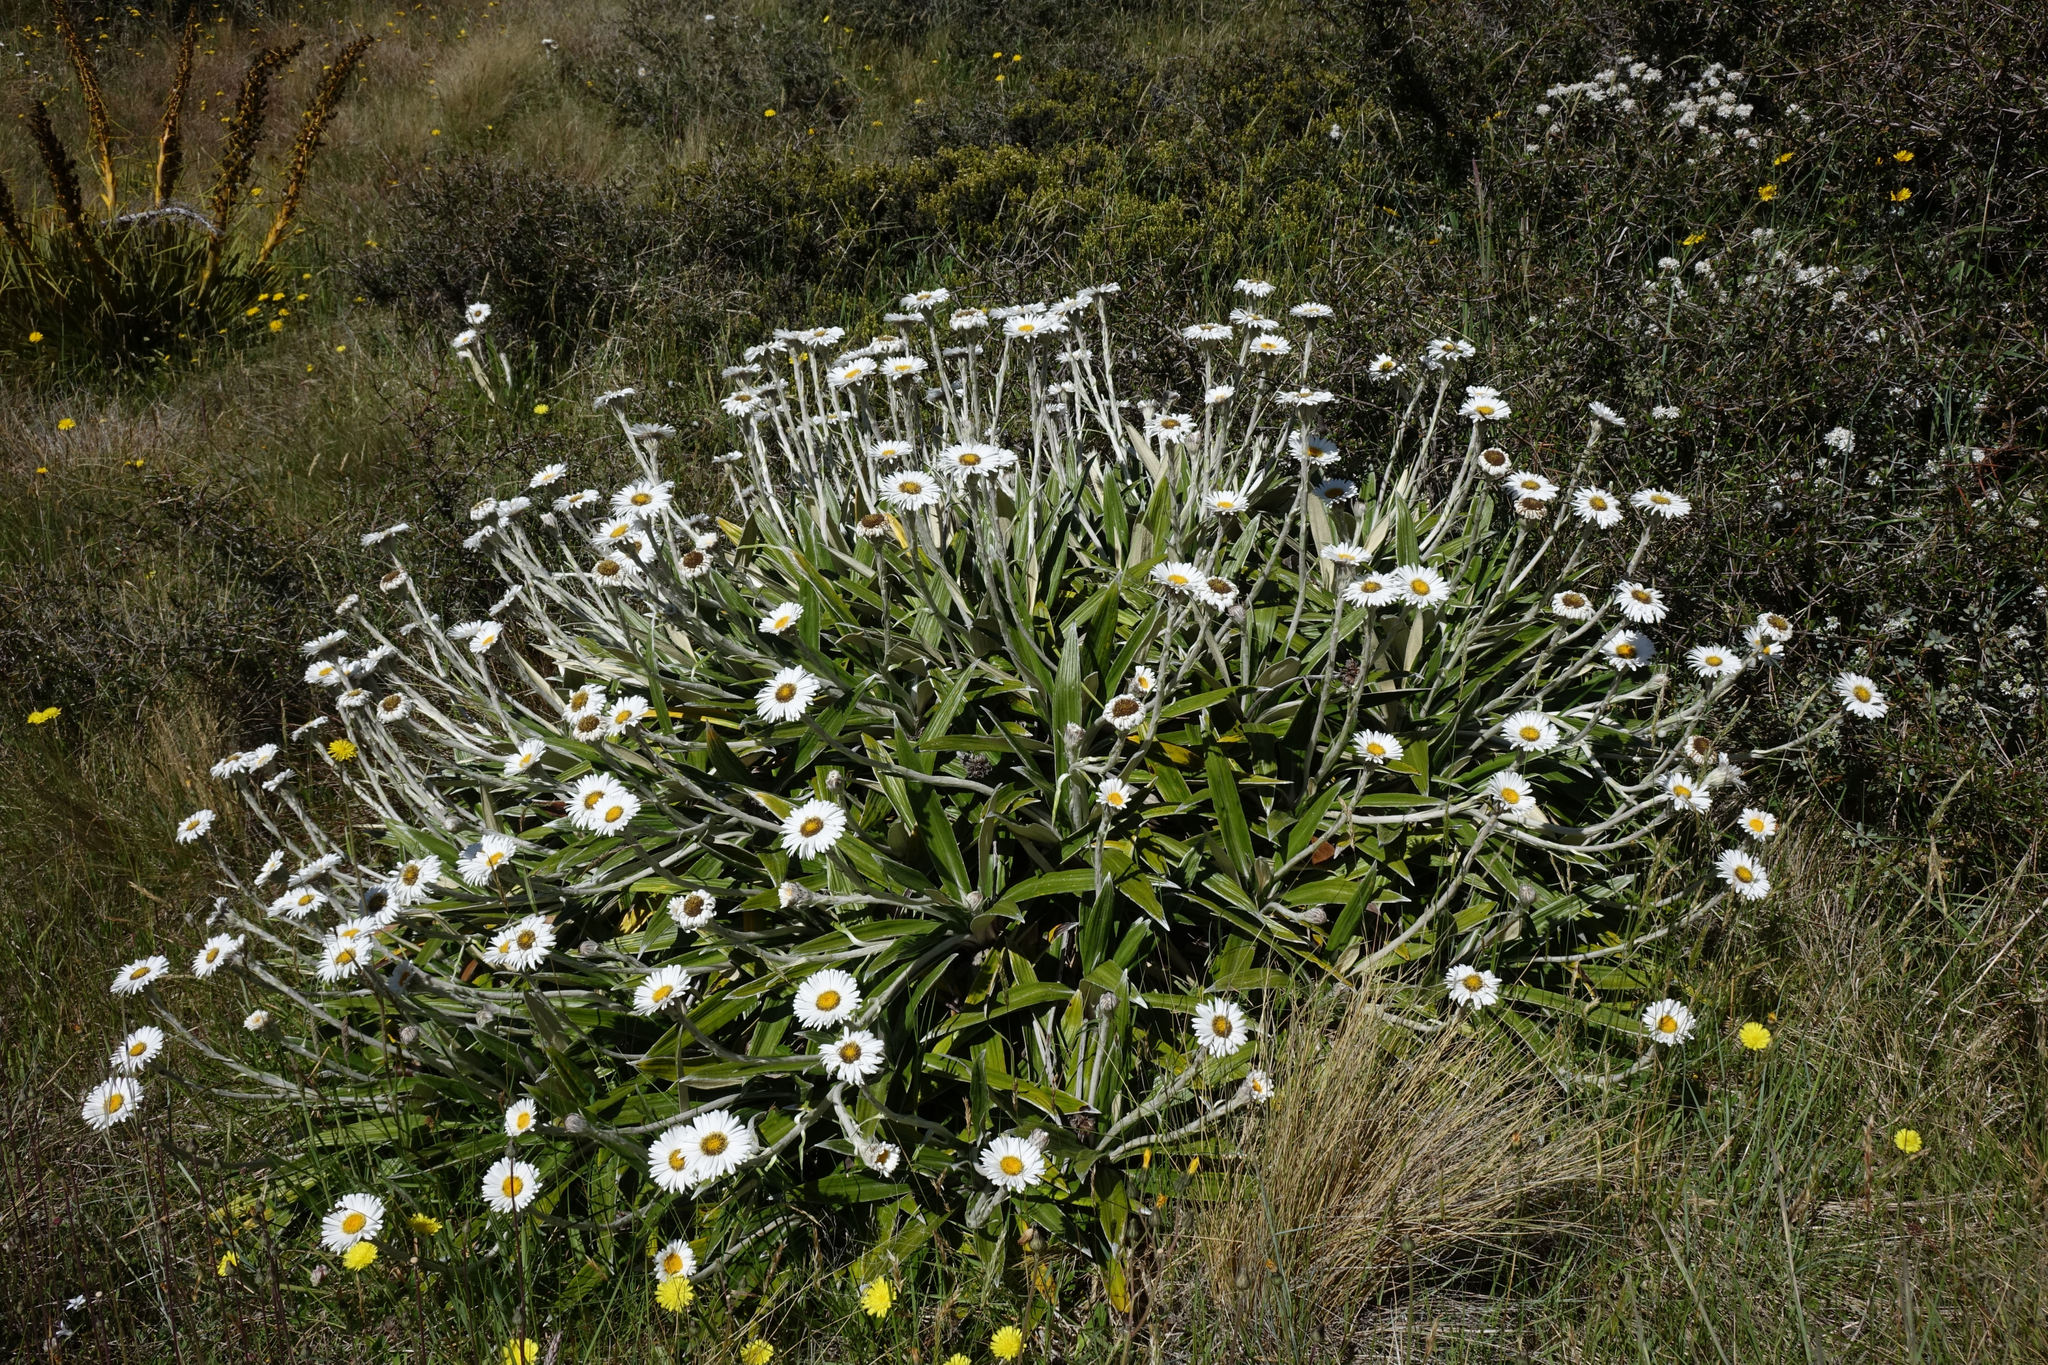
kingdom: Plantae
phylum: Tracheophyta
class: Magnoliopsida
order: Asterales
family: Asteraceae
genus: Celmisia
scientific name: Celmisia spectabilis
